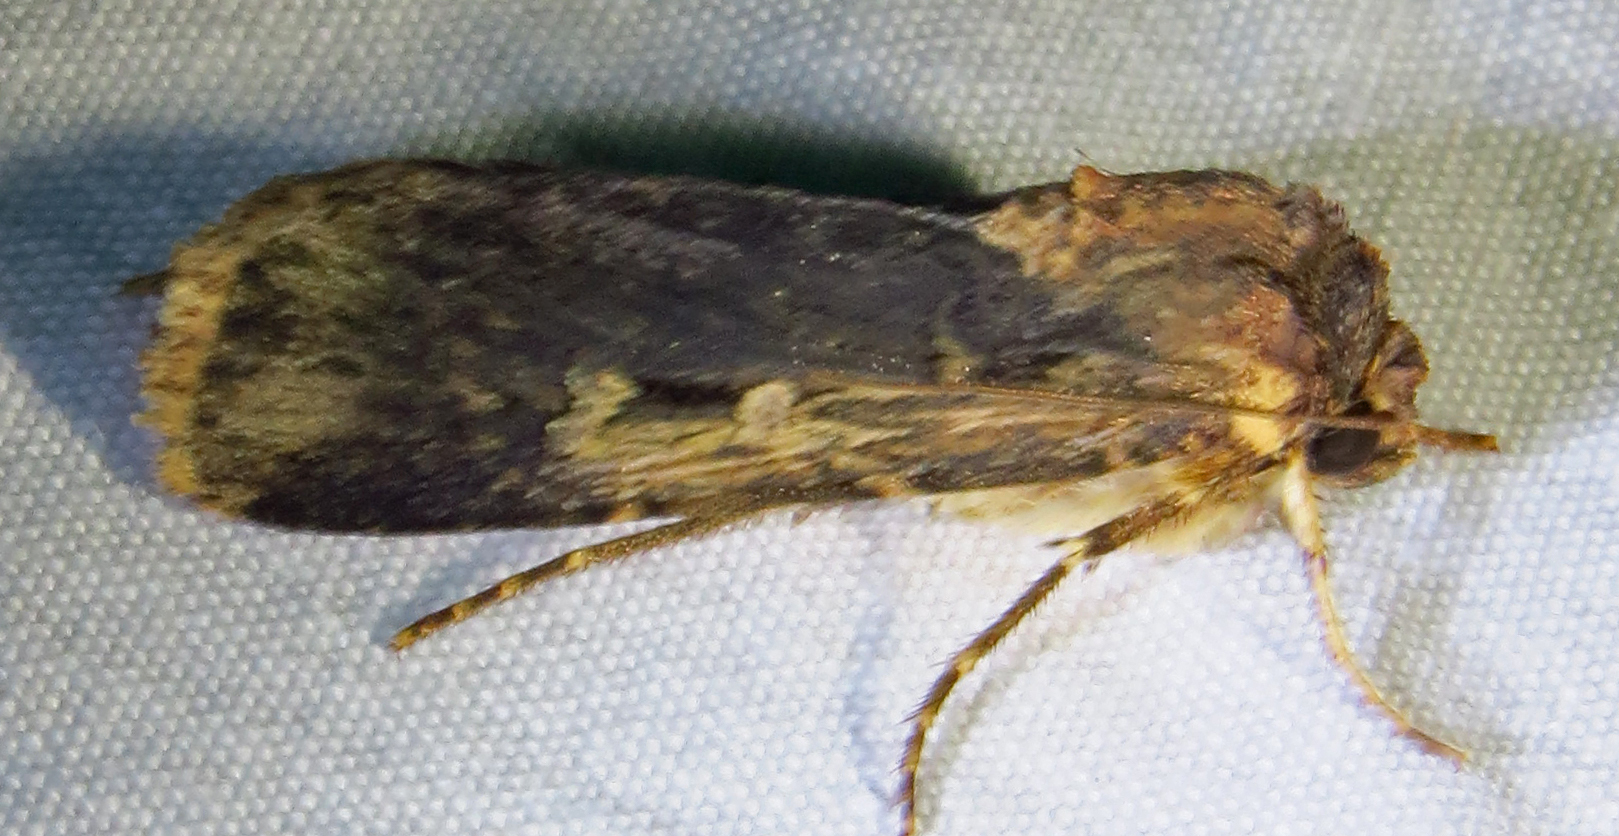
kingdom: Animalia
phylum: Arthropoda
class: Insecta
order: Lepidoptera
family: Noctuidae
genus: Feltia
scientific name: Feltia subterranea
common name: Granulate cutworm
